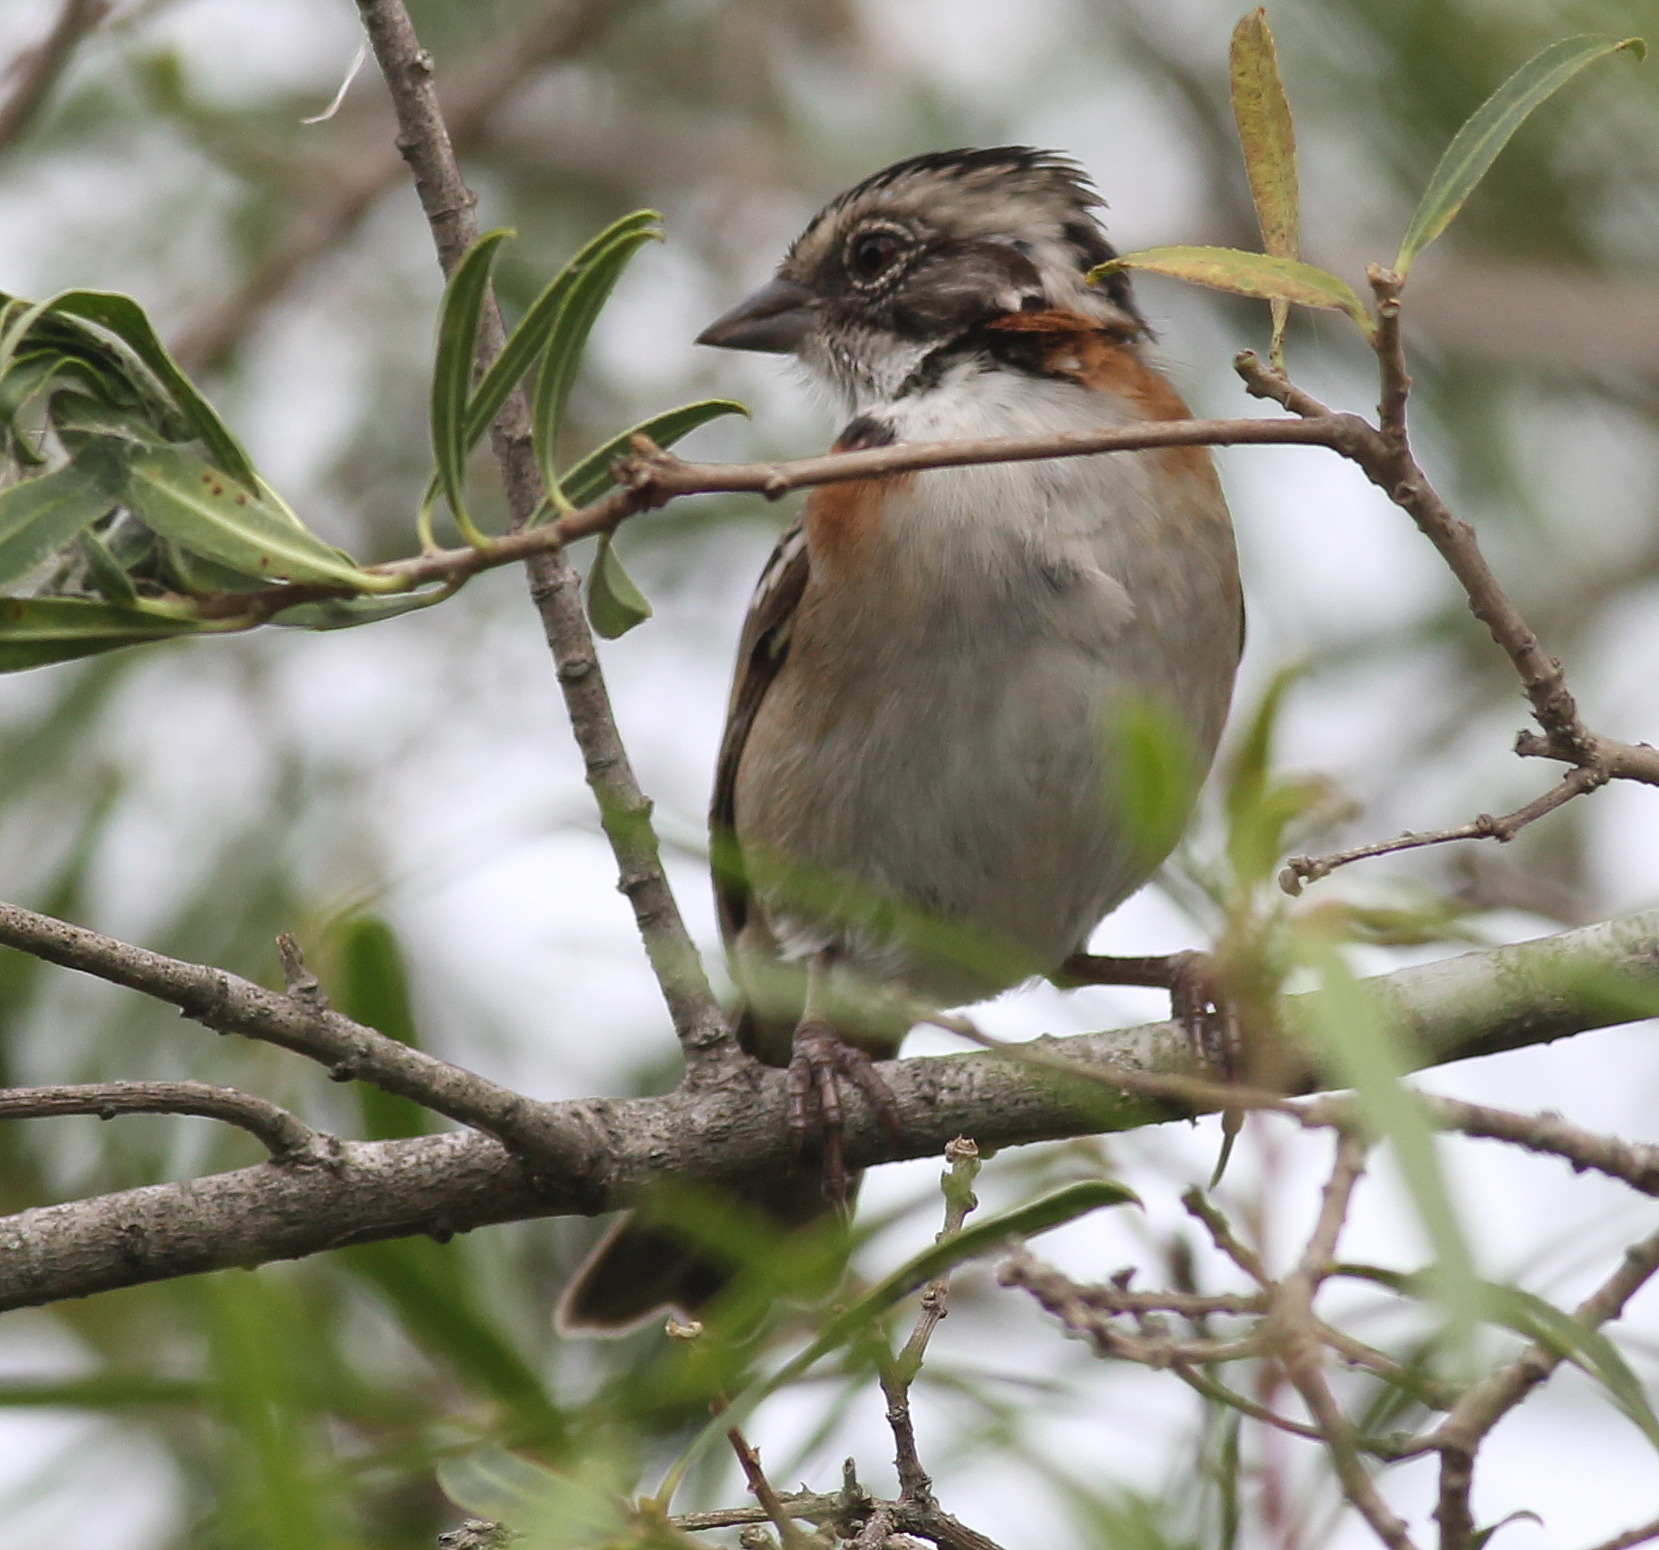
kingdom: Animalia
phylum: Chordata
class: Aves
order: Passeriformes
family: Passerellidae
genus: Zonotrichia
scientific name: Zonotrichia capensis
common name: Rufous-collared sparrow
